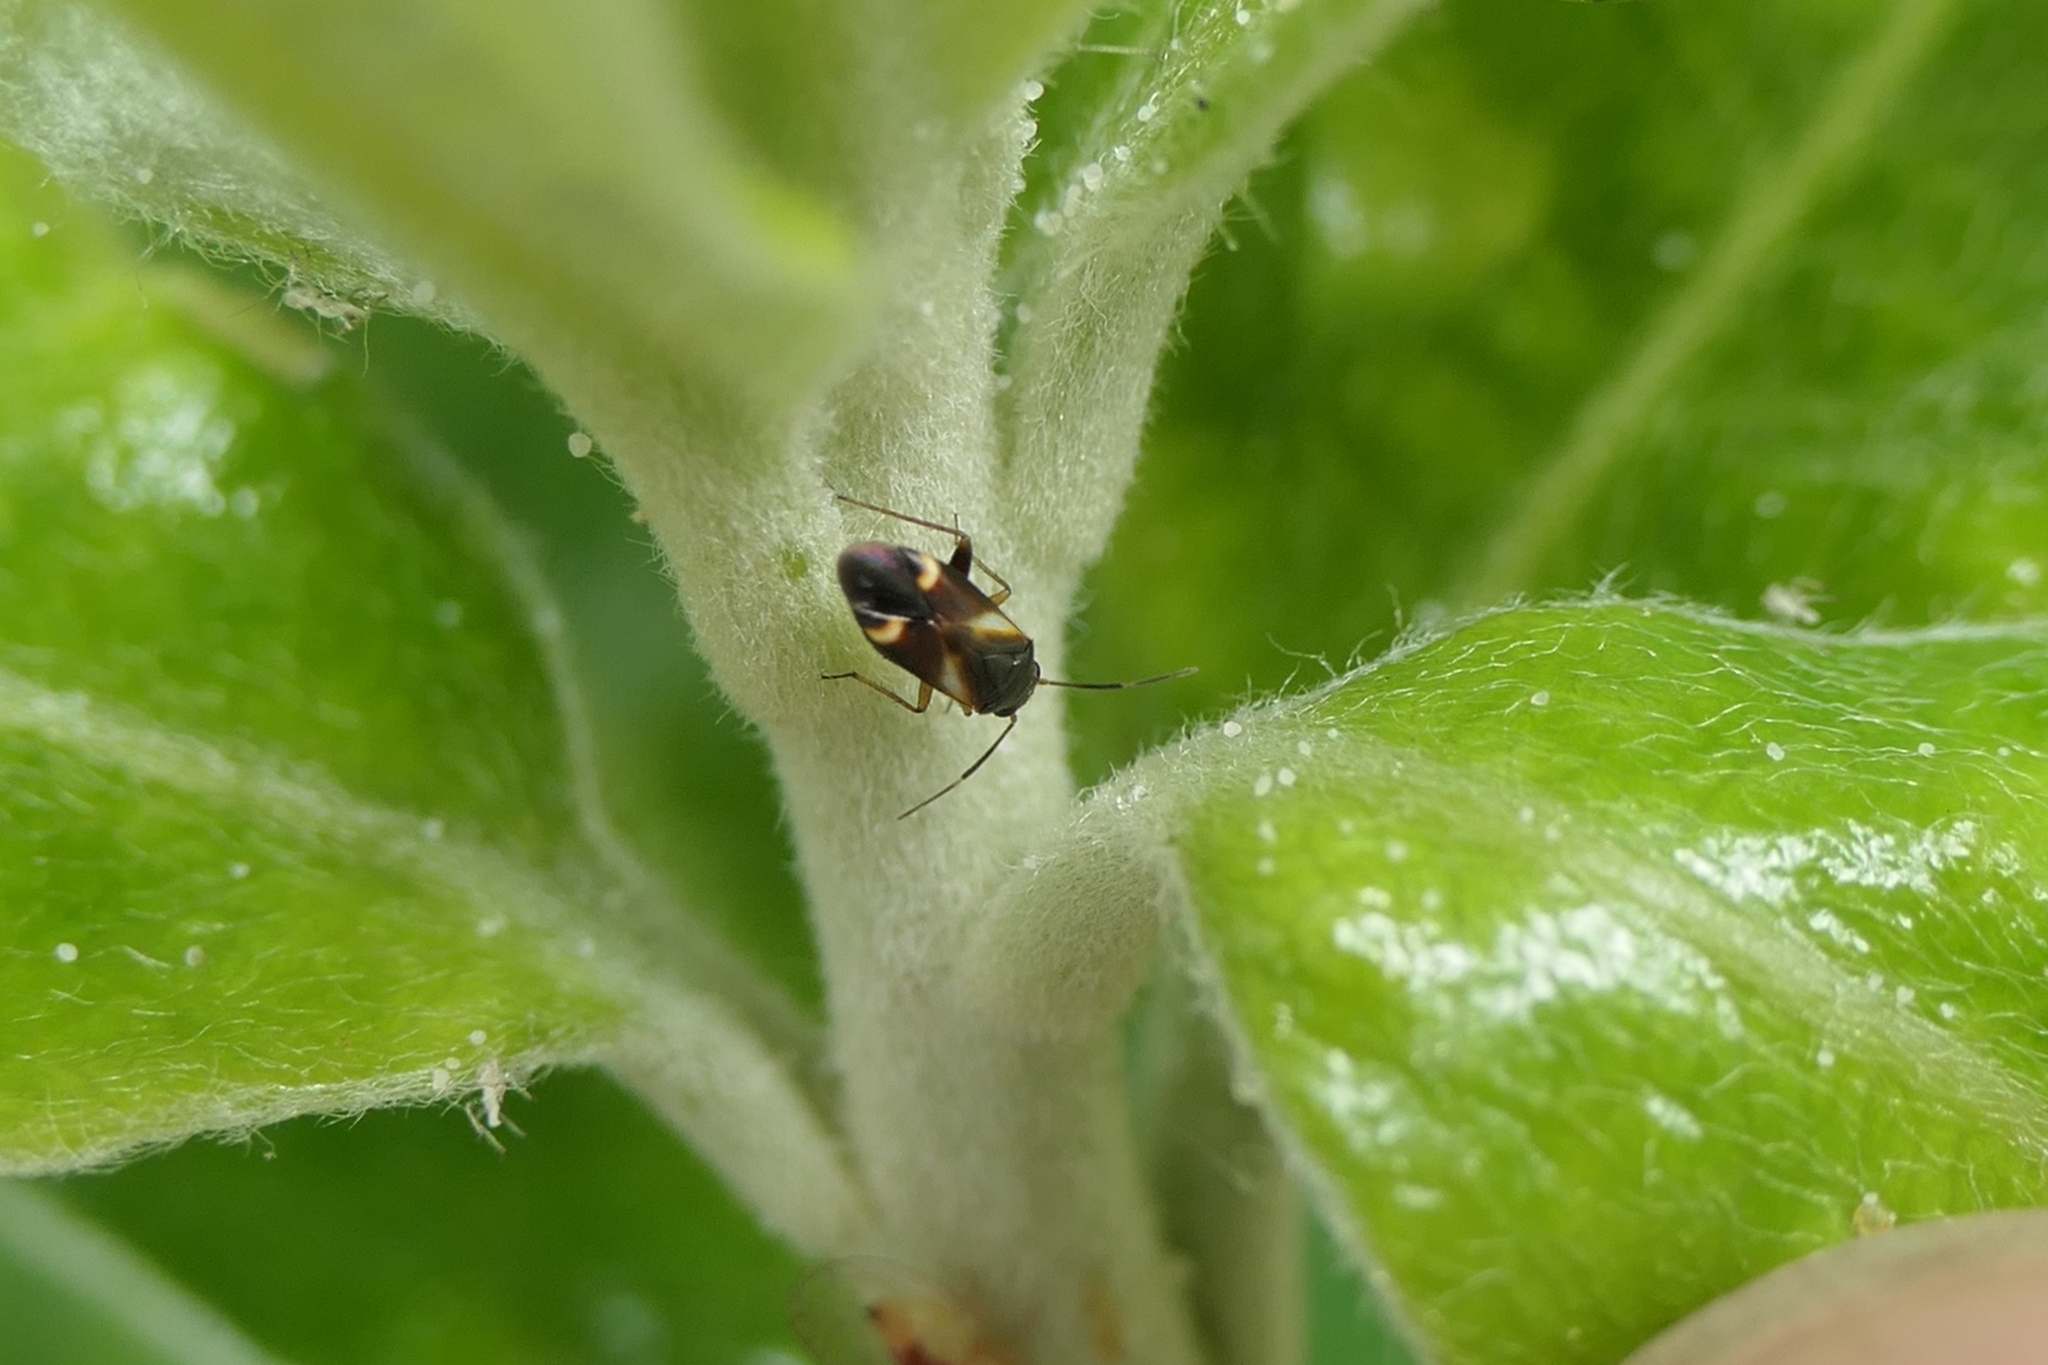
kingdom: Animalia
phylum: Arthropoda
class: Insecta
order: Hemiptera
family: Miridae
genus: Ausejanus
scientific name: Ausejanus albisignatus
